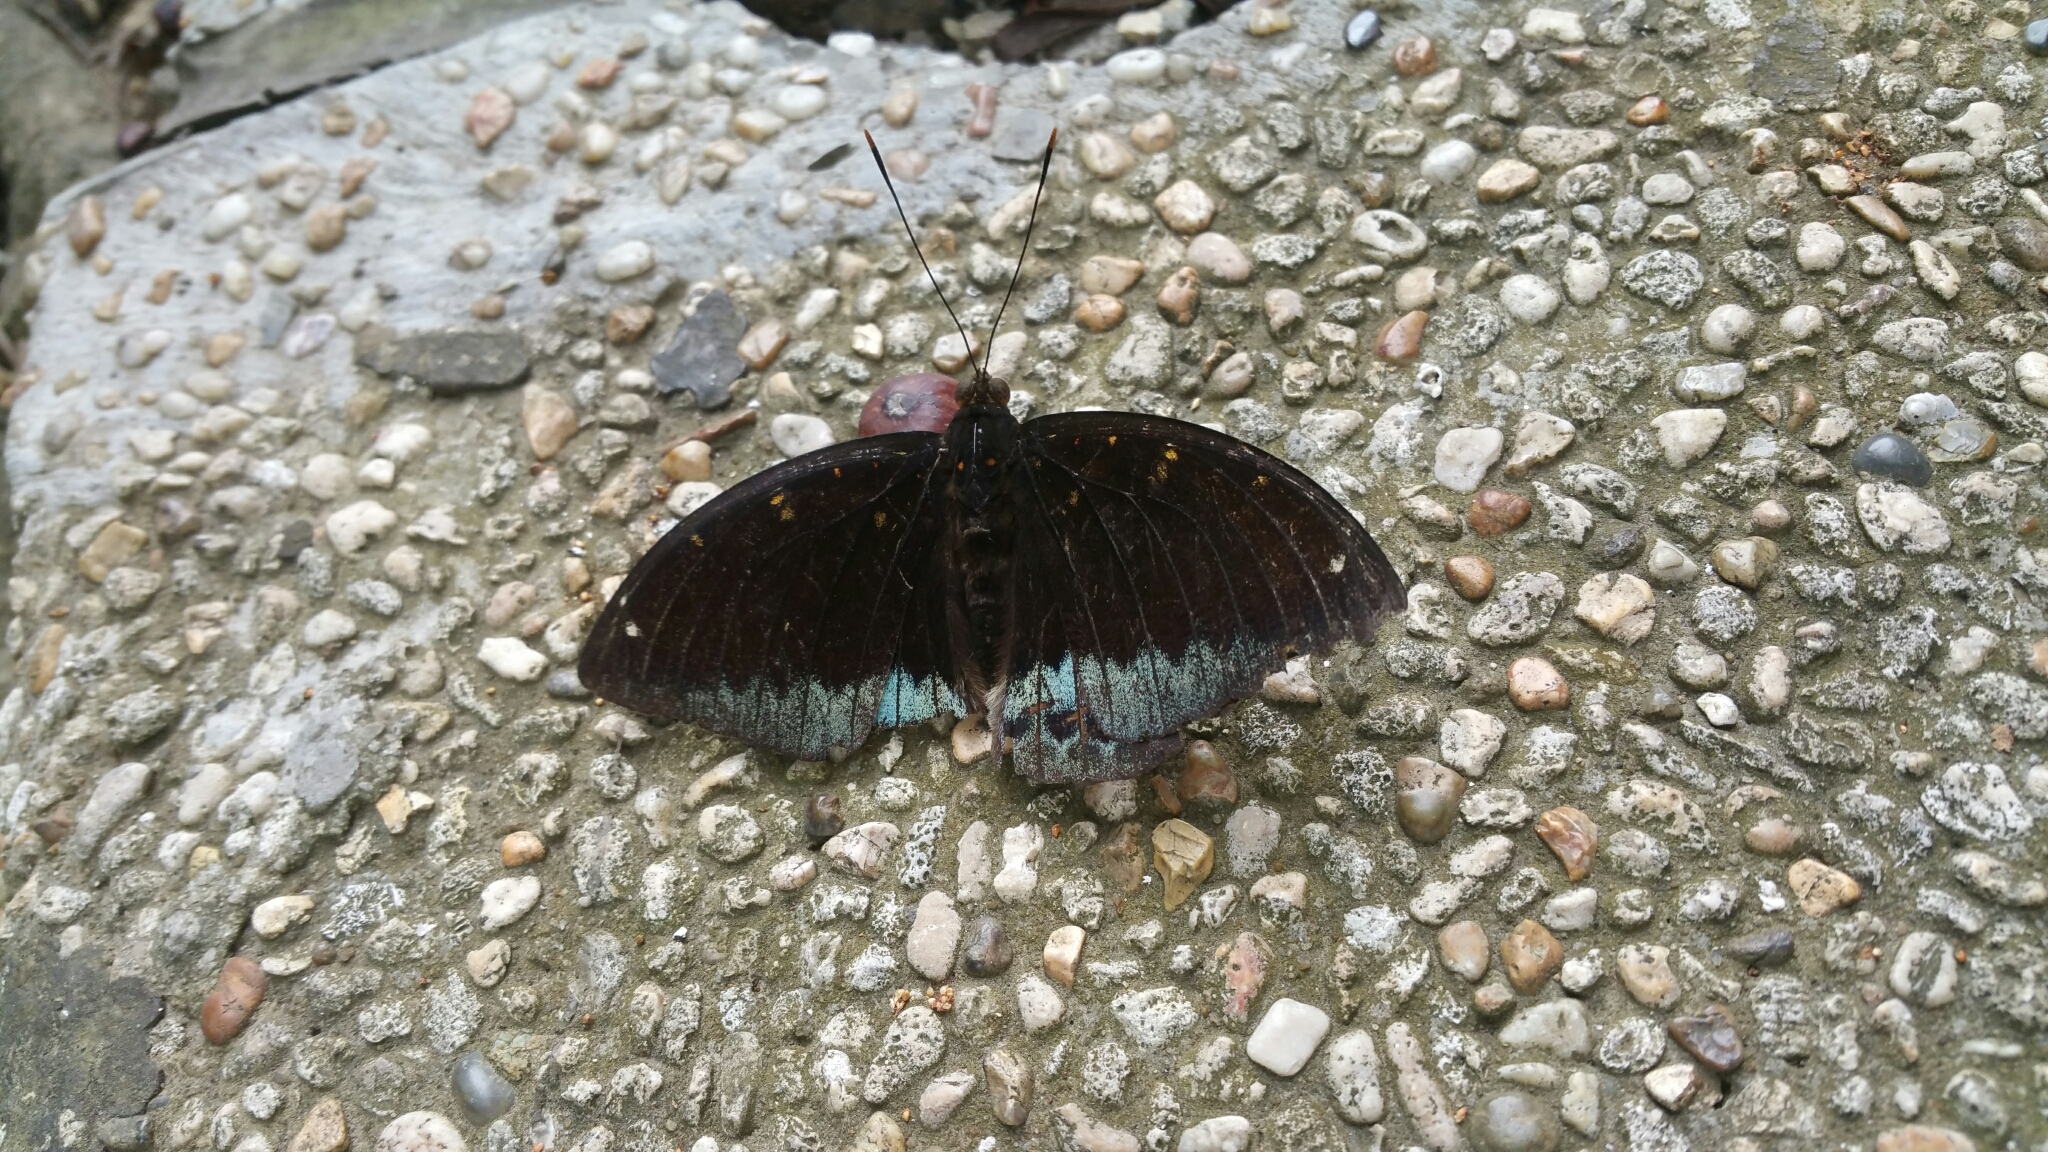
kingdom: Animalia
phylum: Arthropoda
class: Insecta
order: Lepidoptera
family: Nymphalidae
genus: Lexias
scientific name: Lexias pardalis
